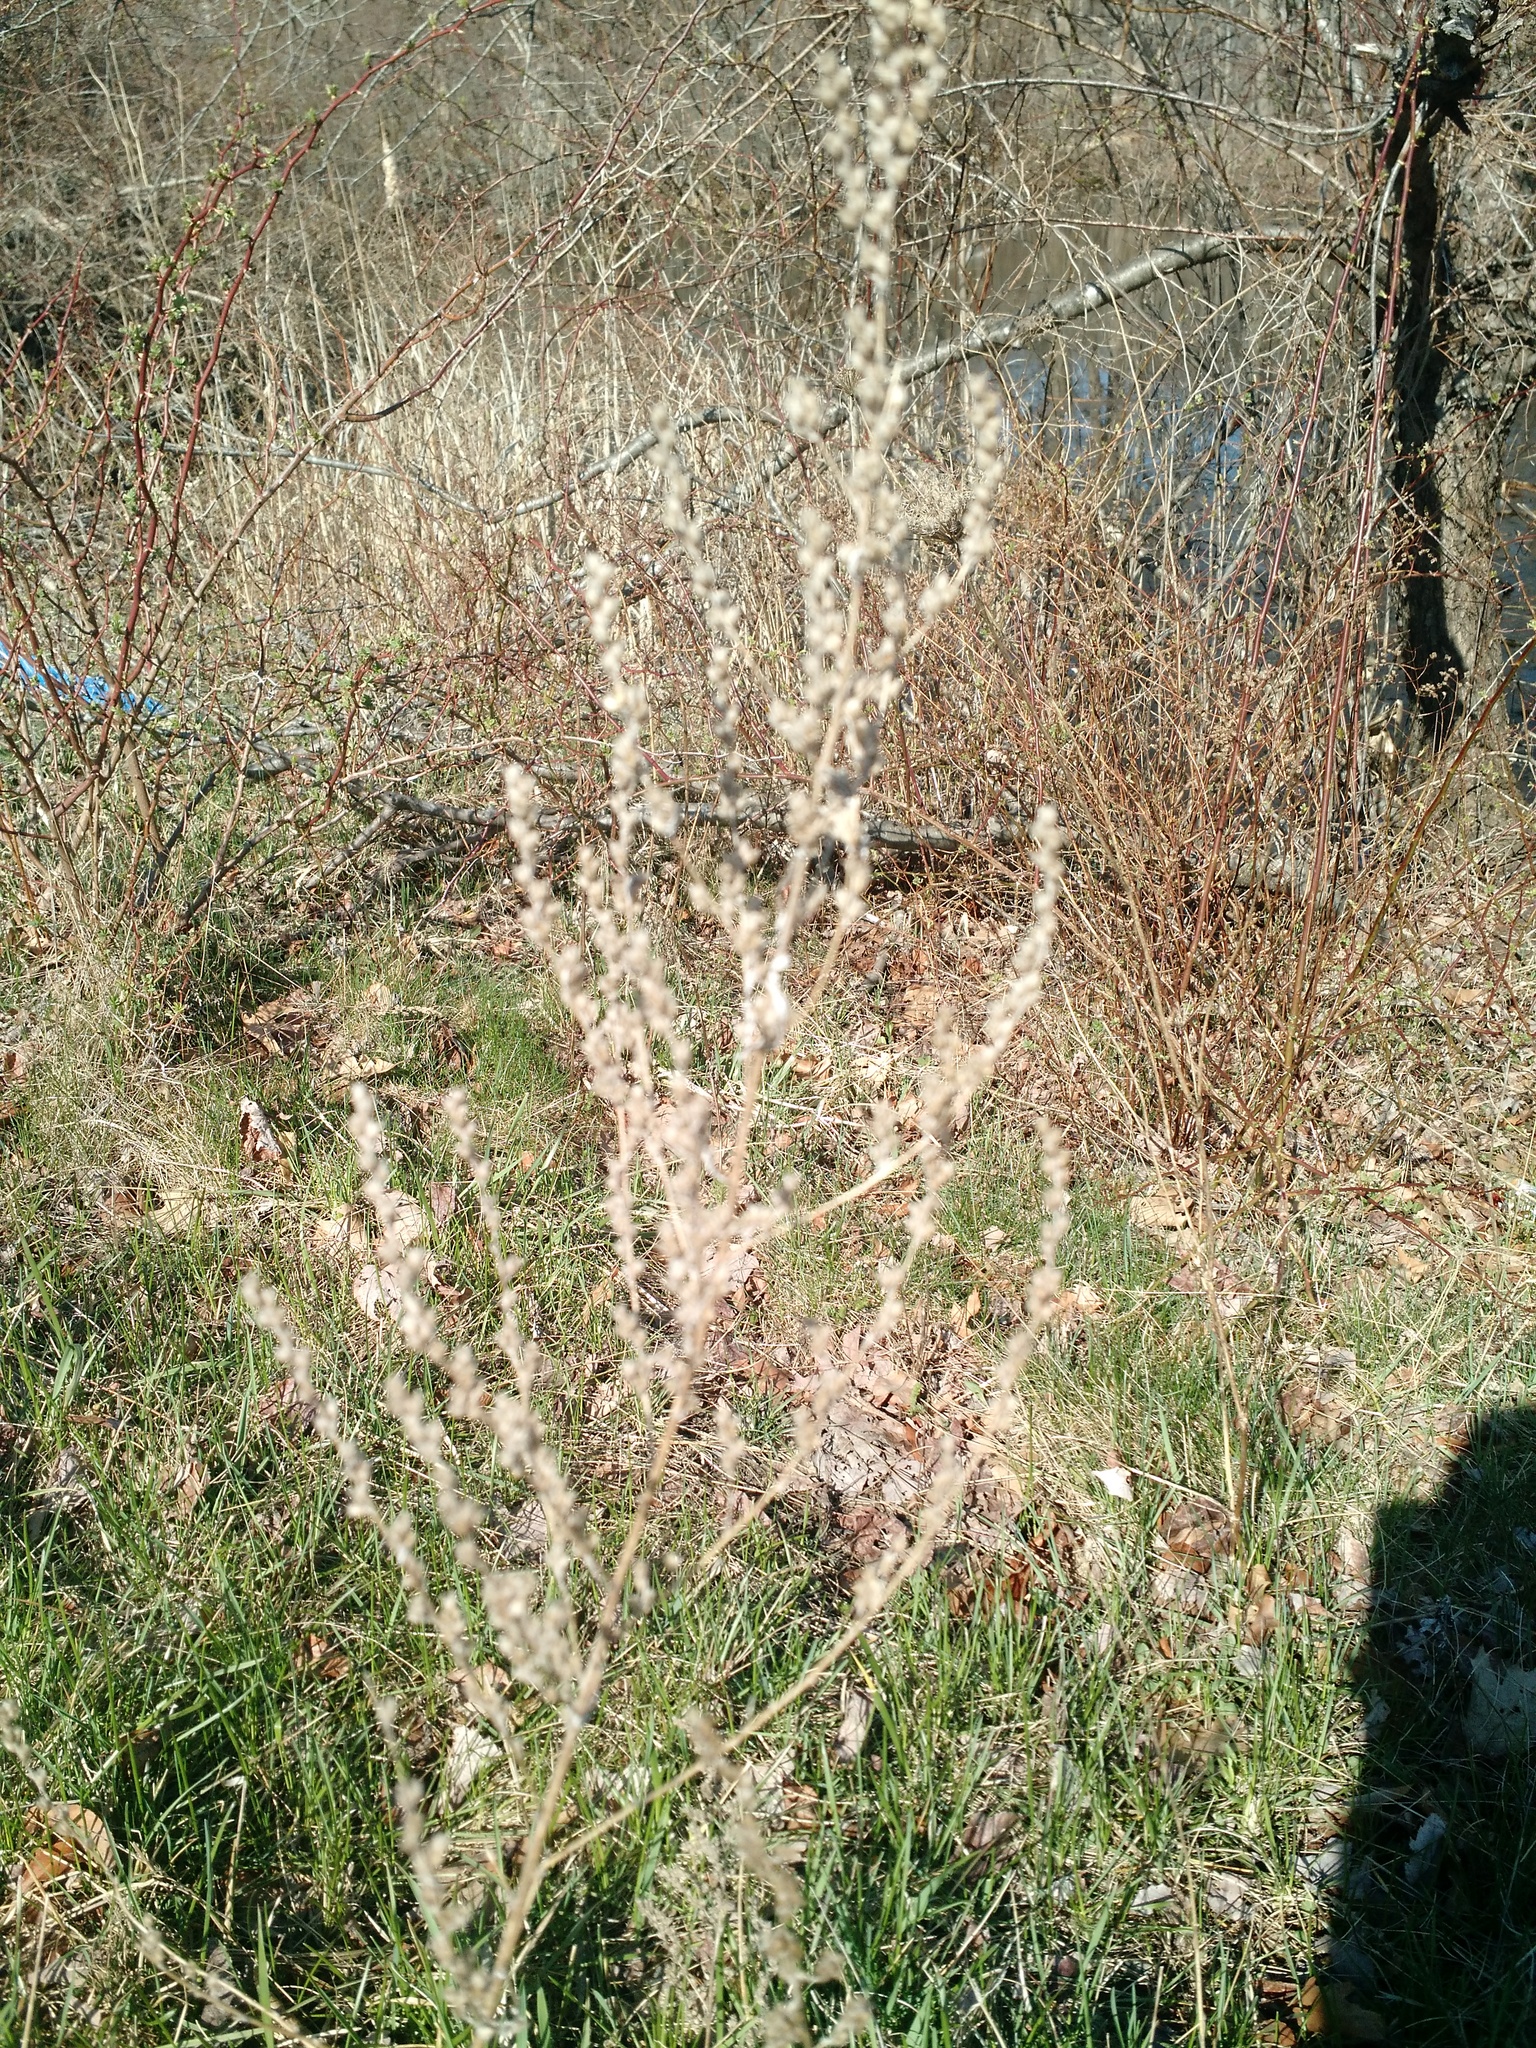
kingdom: Plantae
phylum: Tracheophyta
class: Magnoliopsida
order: Asterales
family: Asteraceae
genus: Artemisia
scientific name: Artemisia vulgaris
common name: Mugwort
